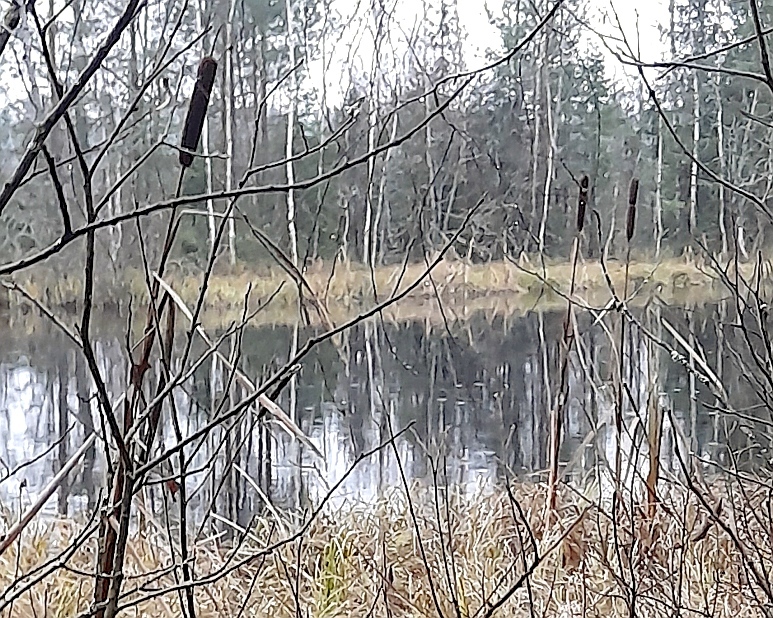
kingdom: Plantae
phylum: Tracheophyta
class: Liliopsida
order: Poales
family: Typhaceae
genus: Typha
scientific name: Typha latifolia
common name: Broadleaf cattail
